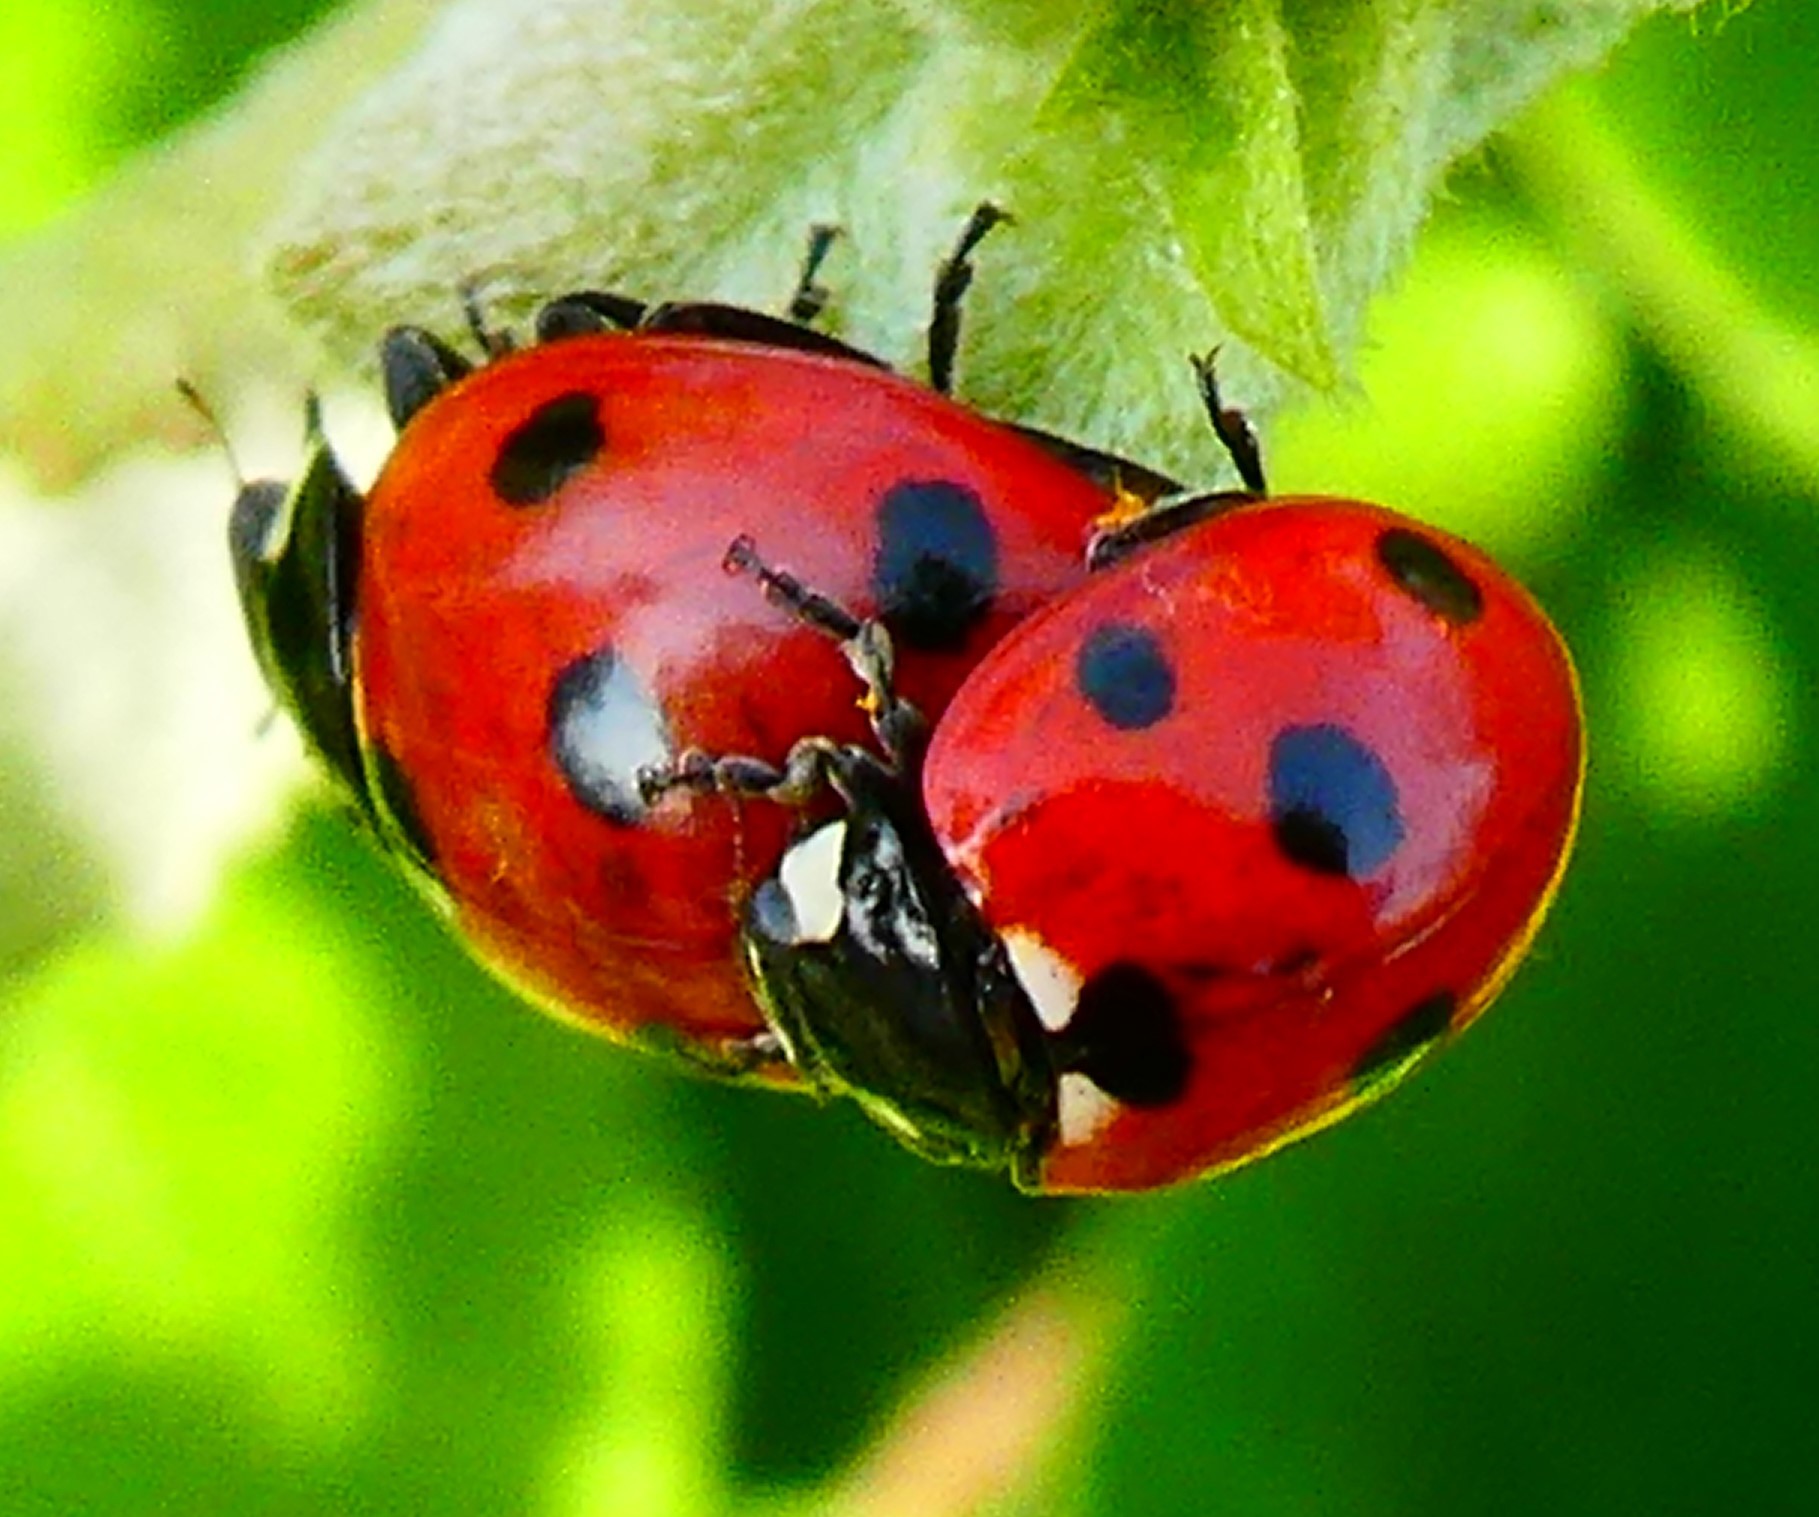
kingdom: Animalia
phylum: Arthropoda
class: Insecta
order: Coleoptera
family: Coccinellidae
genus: Coccinella
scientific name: Coccinella septempunctata
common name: Sevenspotted lady beetle
